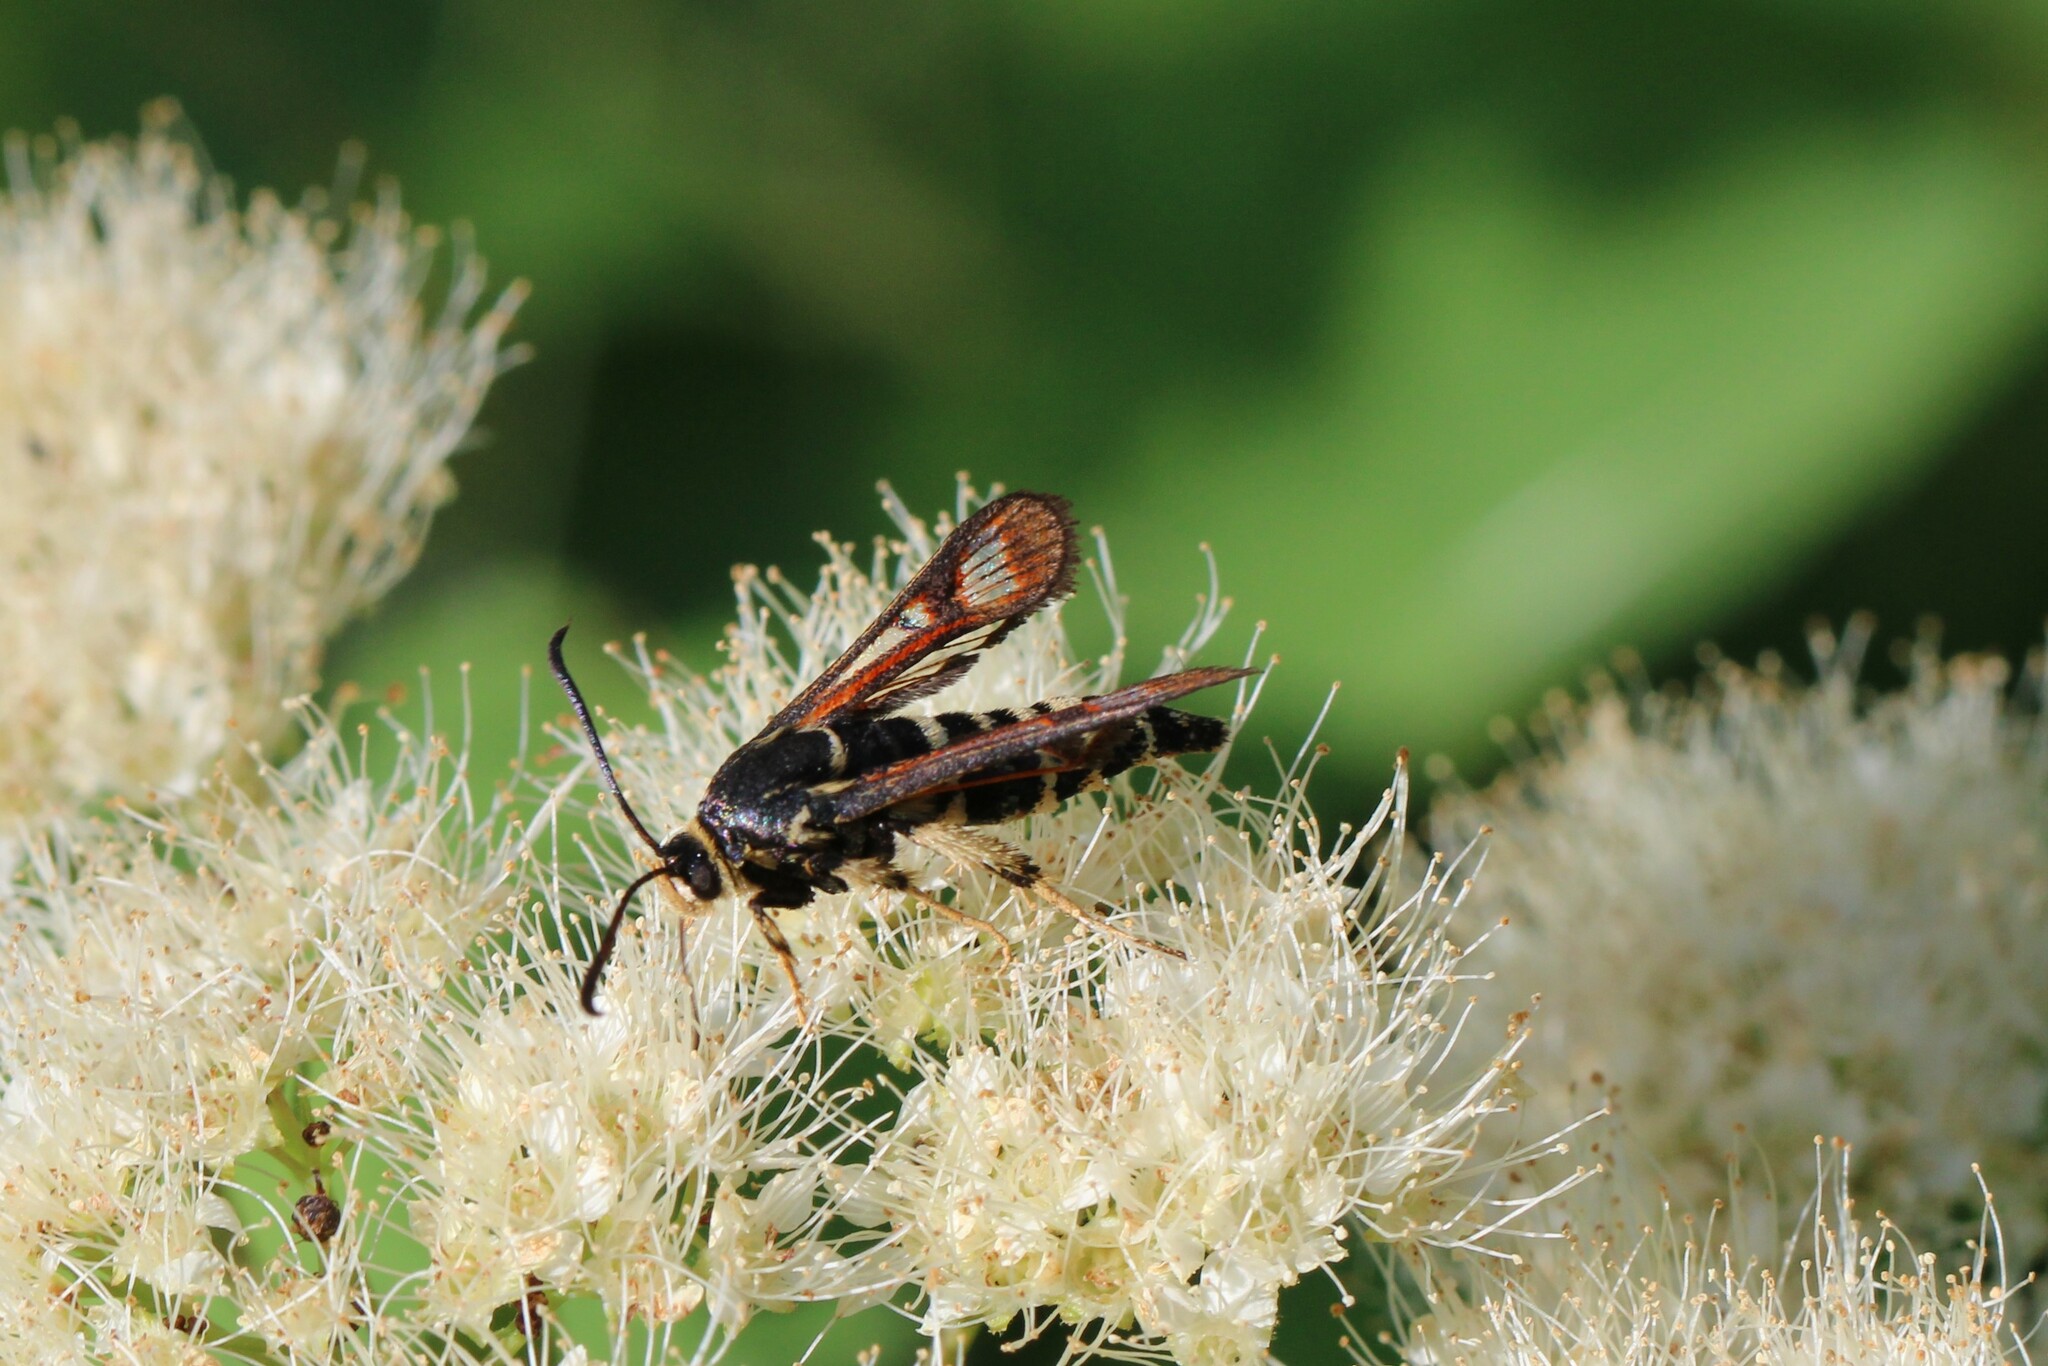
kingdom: Animalia
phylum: Arthropoda
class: Insecta
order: Lepidoptera
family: Sesiidae
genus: Albuna
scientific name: Albuna pyramidalis
